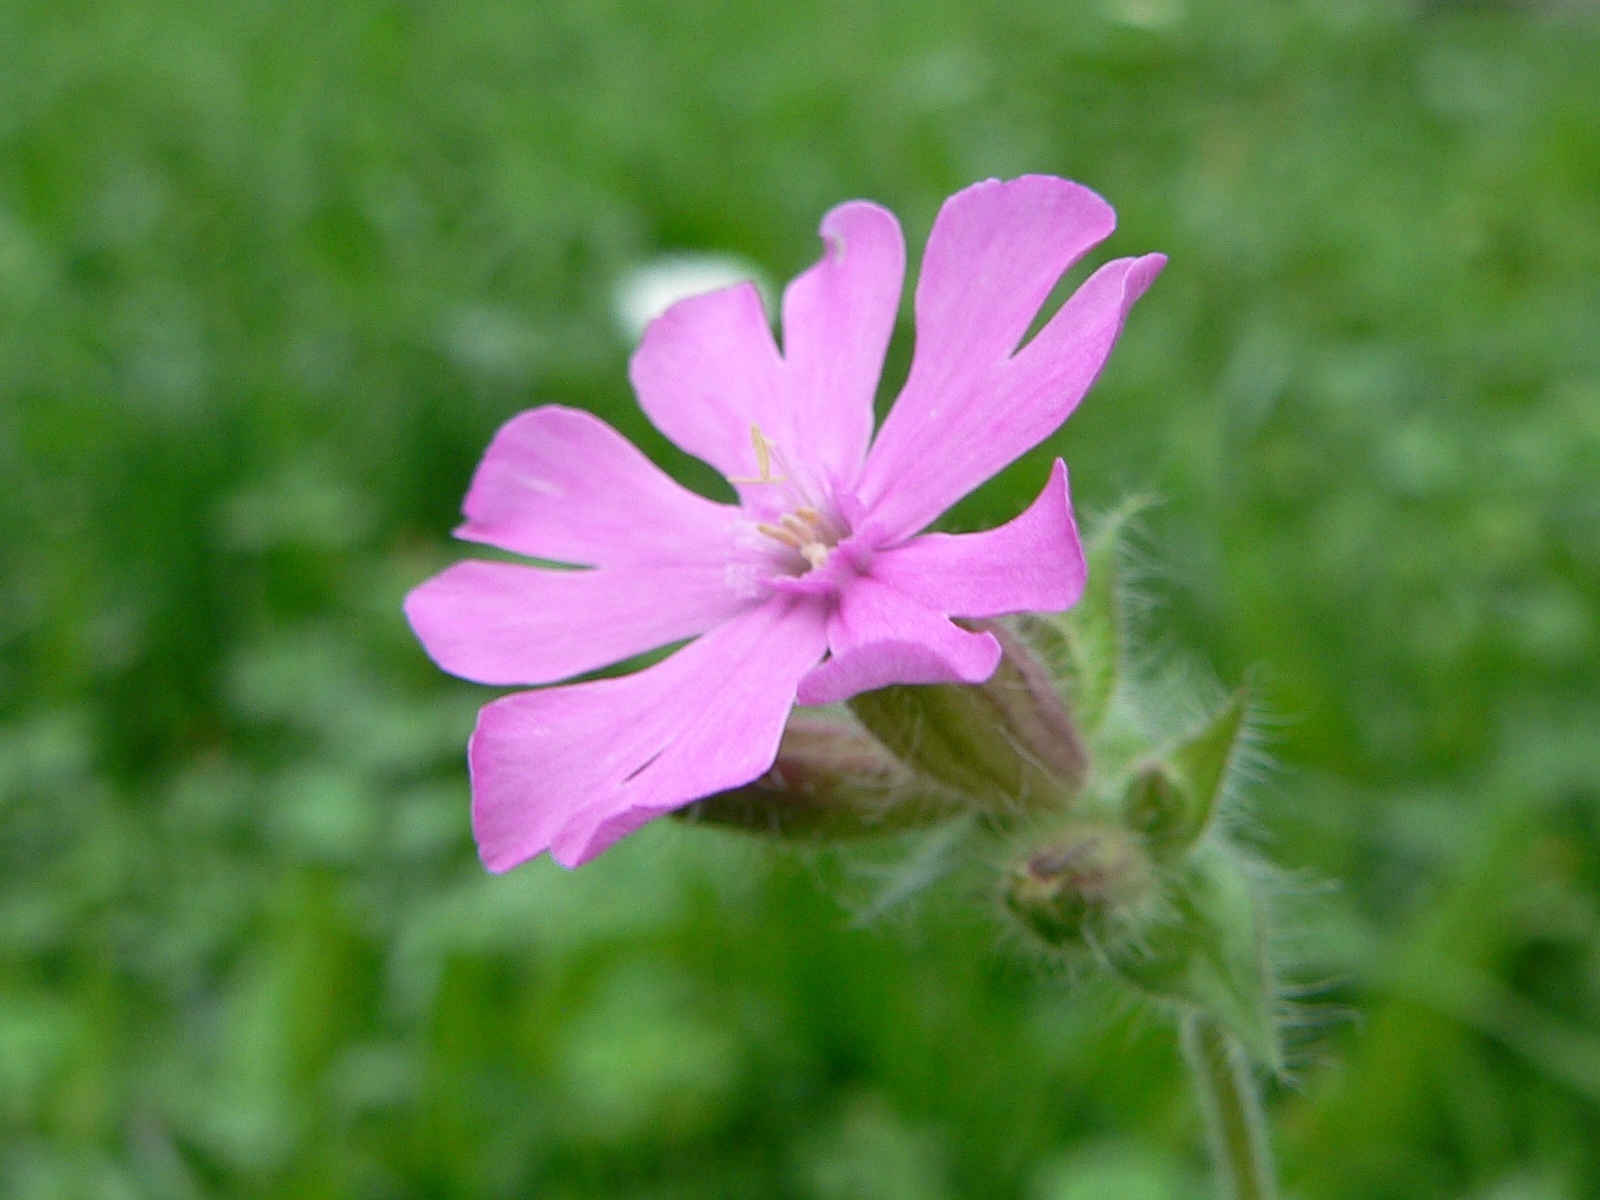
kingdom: Plantae
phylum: Tracheophyta
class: Magnoliopsida
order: Caryophyllales
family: Caryophyllaceae
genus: Silene
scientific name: Silene dioica
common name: Red campion
